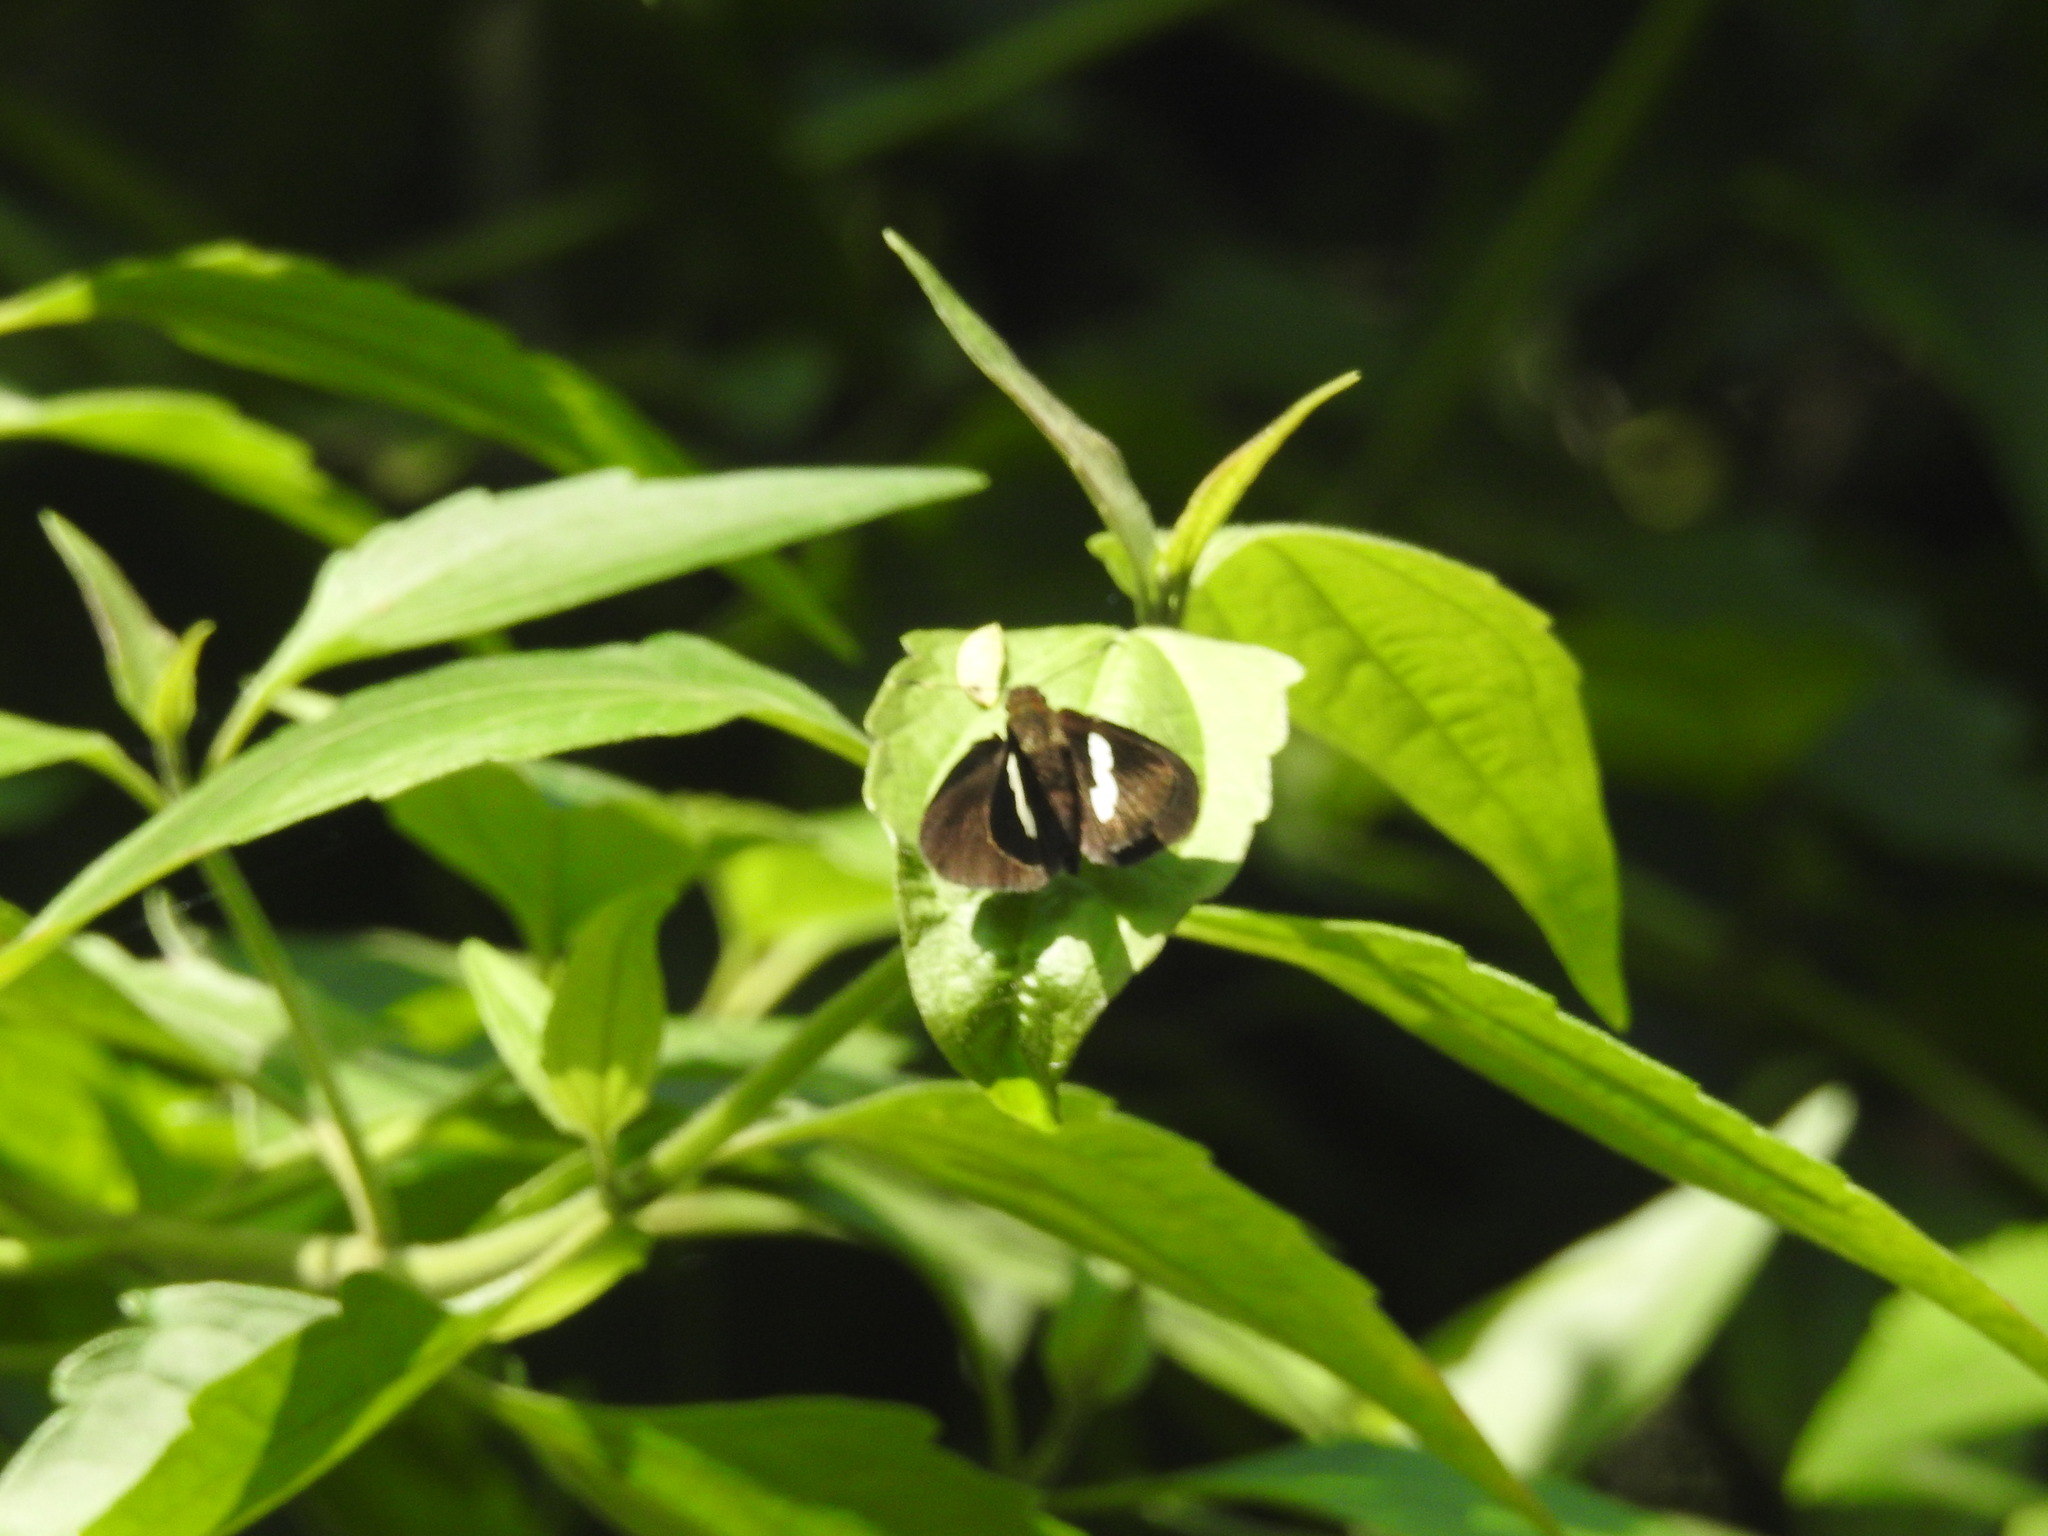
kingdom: Animalia
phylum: Arthropoda
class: Insecta
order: Lepidoptera
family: Hesperiidae
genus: Notocrypta
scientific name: Notocrypta paralysos
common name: Common banded demon
